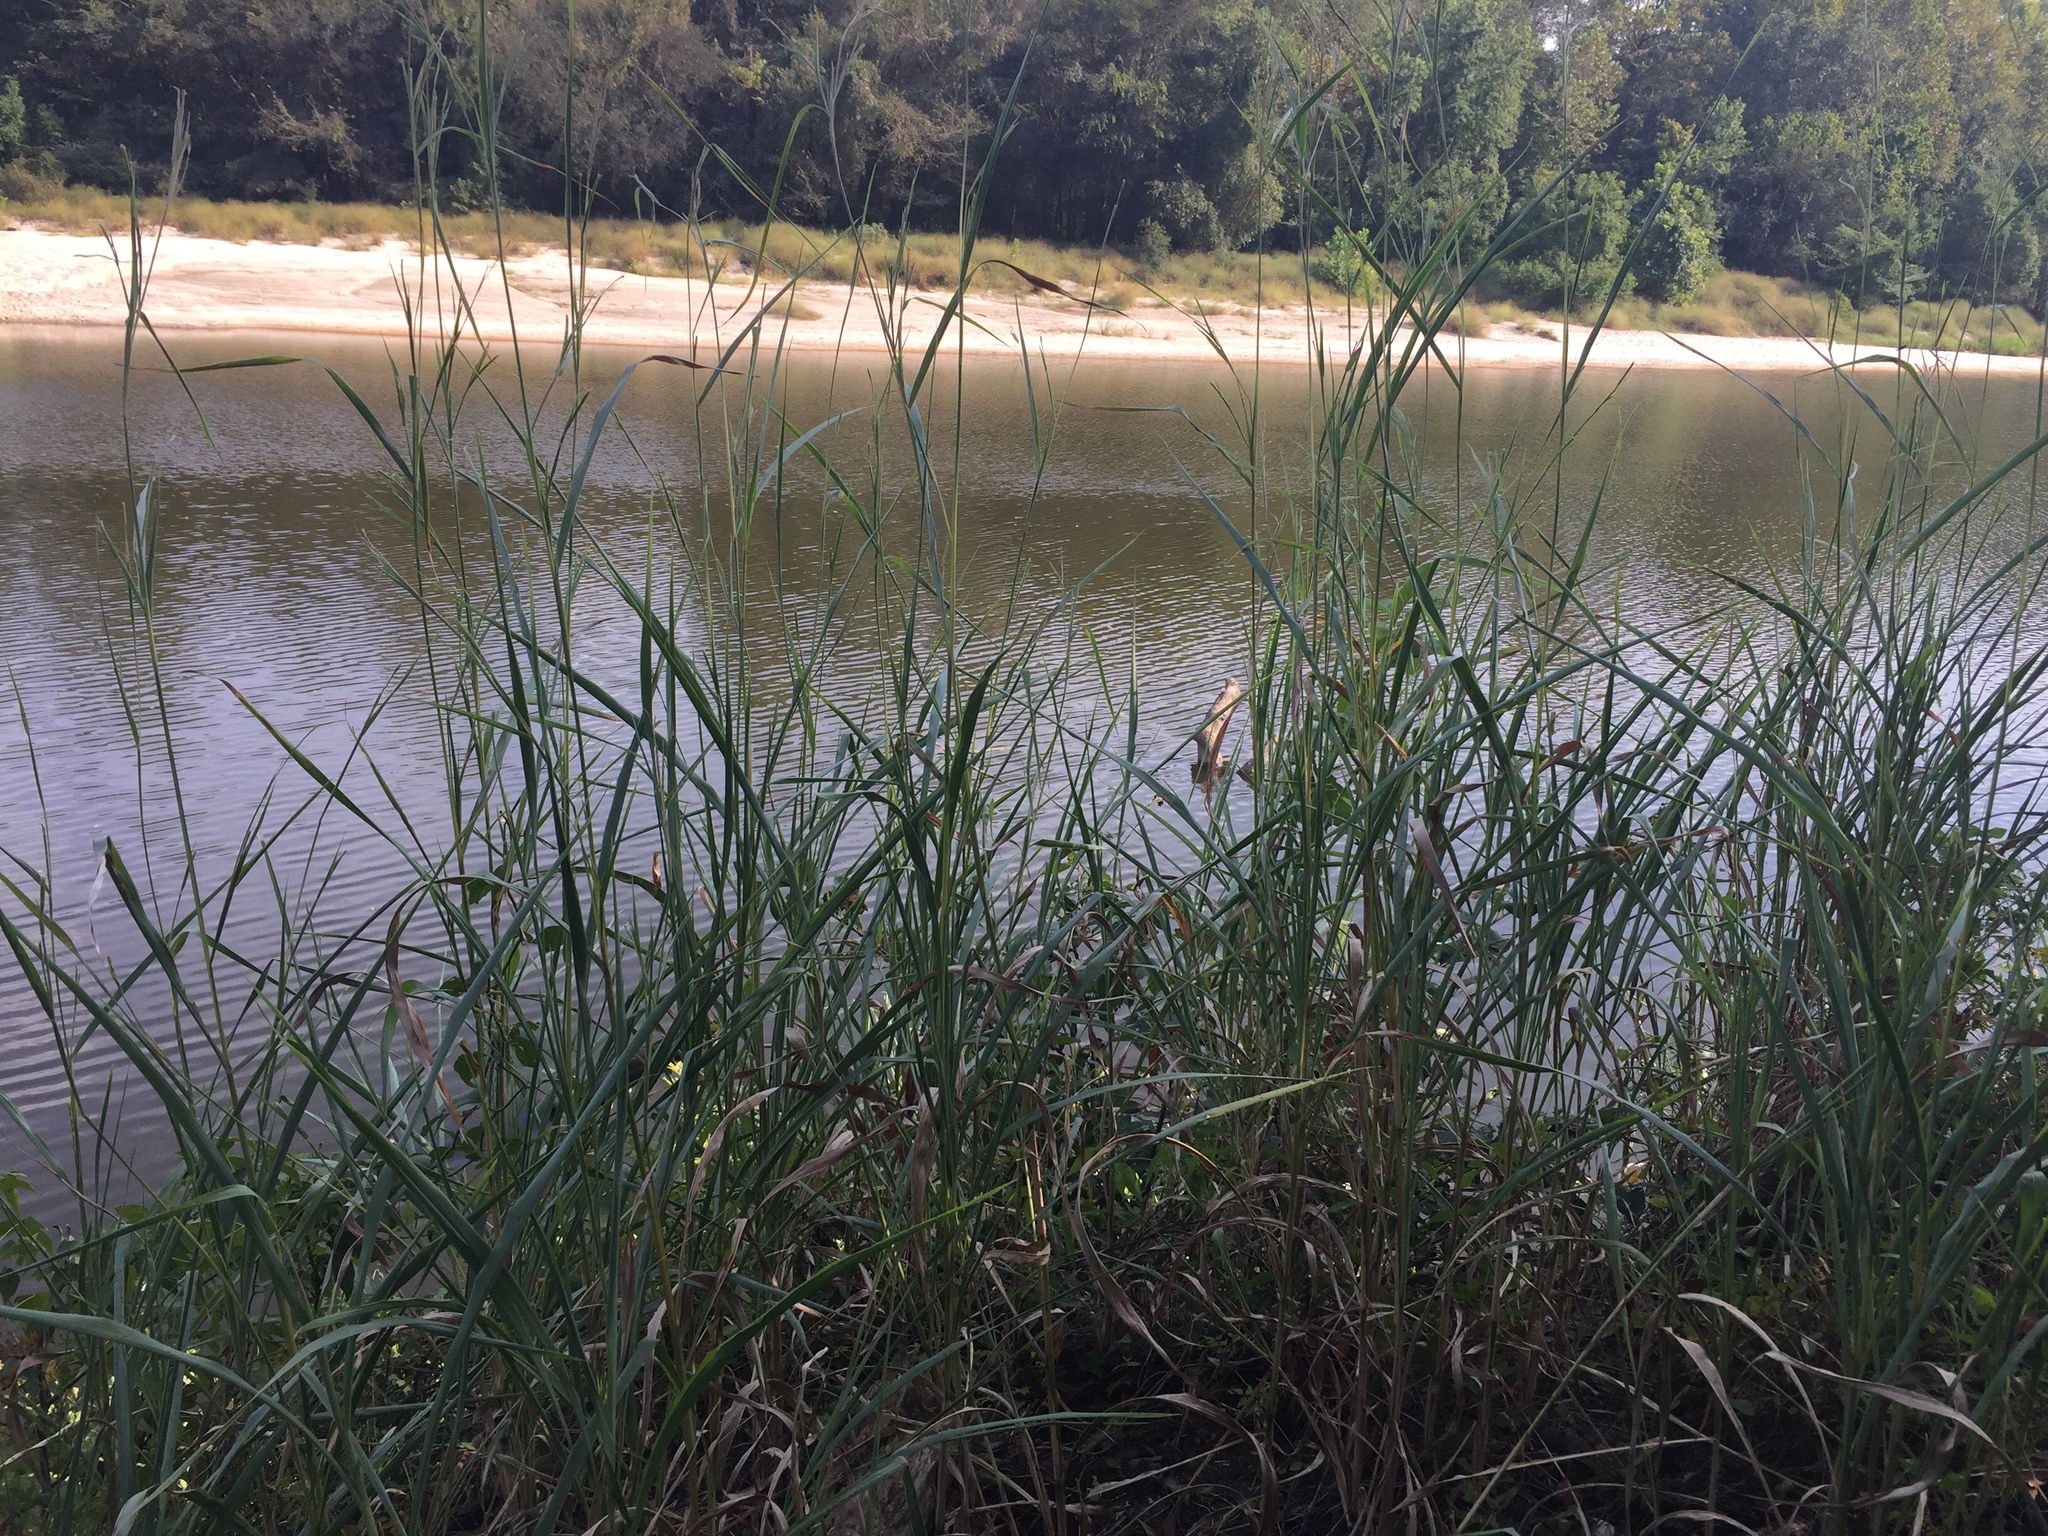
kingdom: Plantae
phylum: Tracheophyta
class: Liliopsida
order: Poales
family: Poaceae
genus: Rottboellia
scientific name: Rottboellia cochinchinensis
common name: Itchgrass
